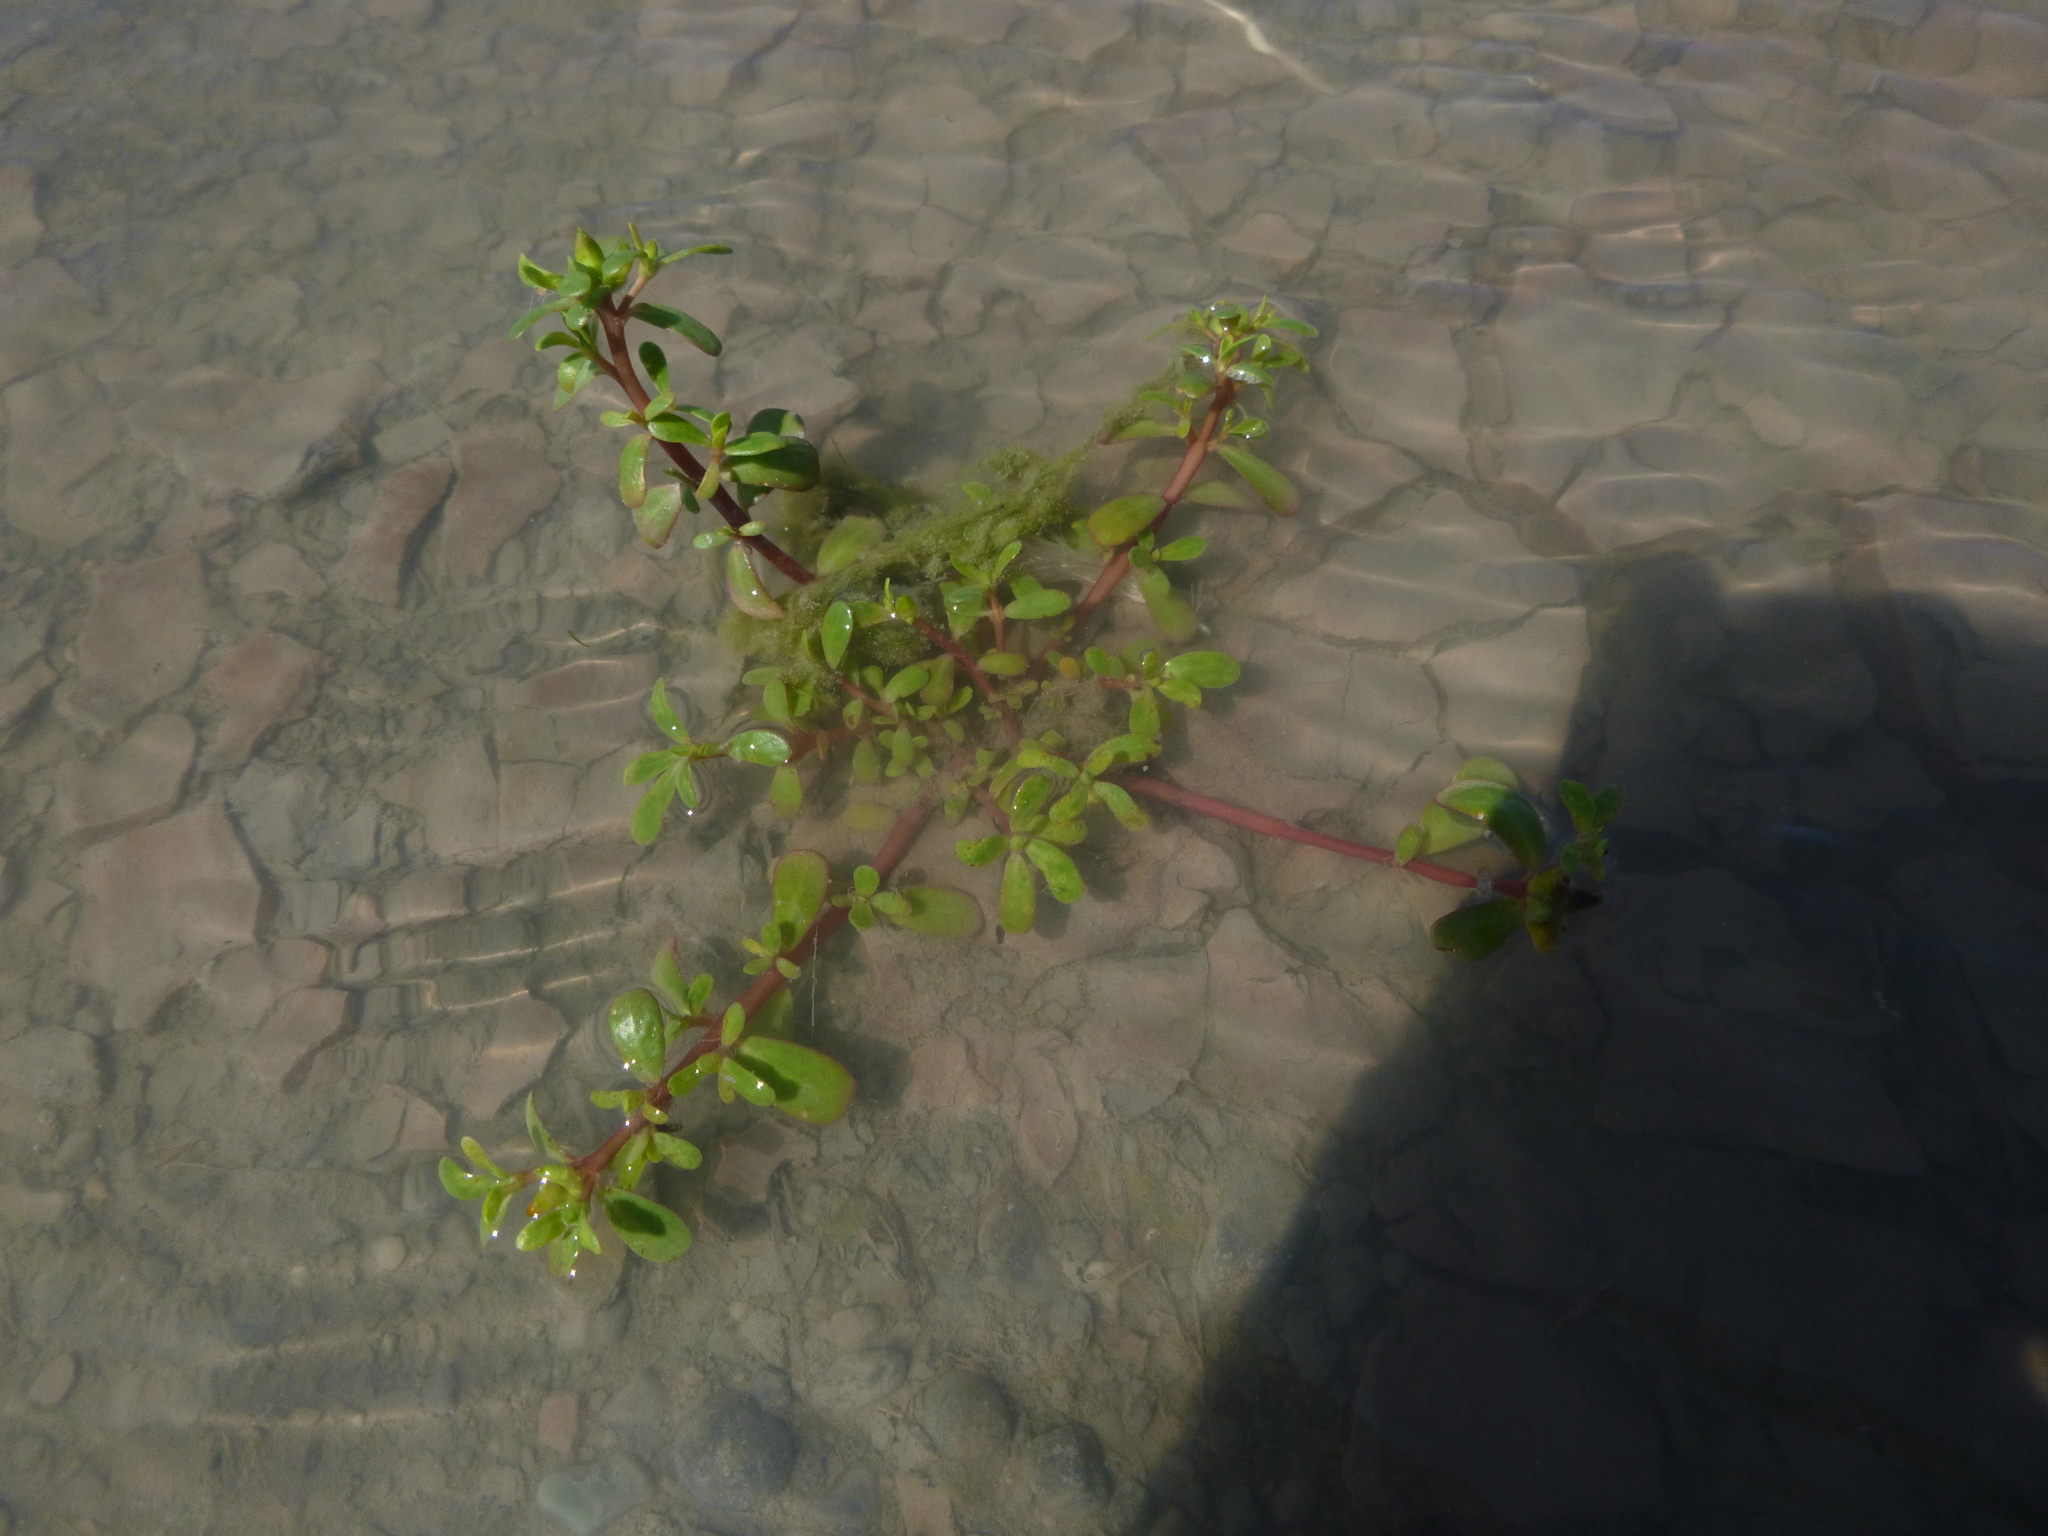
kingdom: Plantae
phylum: Tracheophyta
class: Magnoliopsida
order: Caryophyllales
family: Portulacaceae
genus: Portulaca
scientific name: Portulaca oleracea
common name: Common purslane
